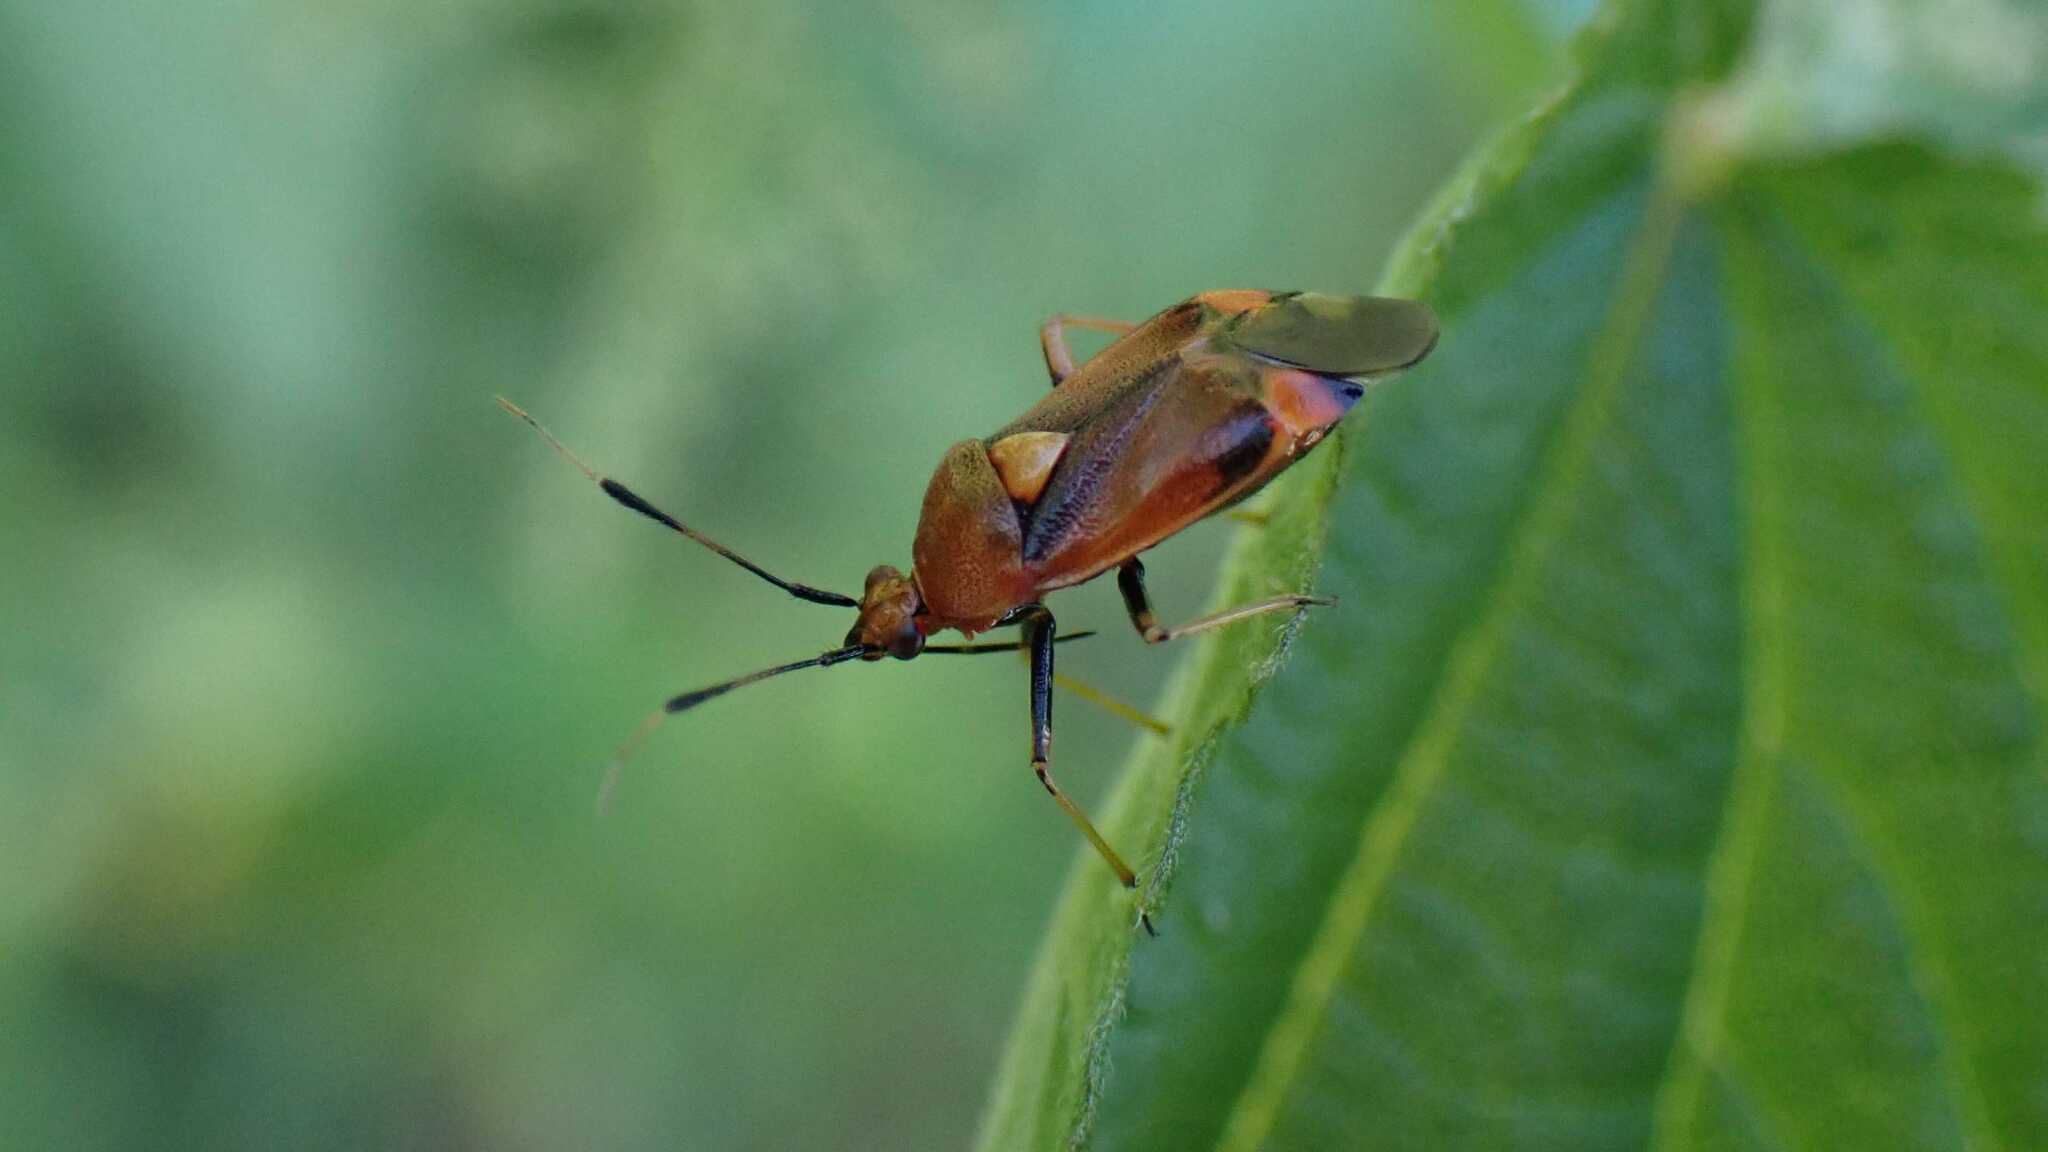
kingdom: Animalia
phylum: Arthropoda
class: Insecta
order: Hemiptera
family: Miridae
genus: Deraeocoris
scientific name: Deraeocoris ruber
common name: Plant bug
